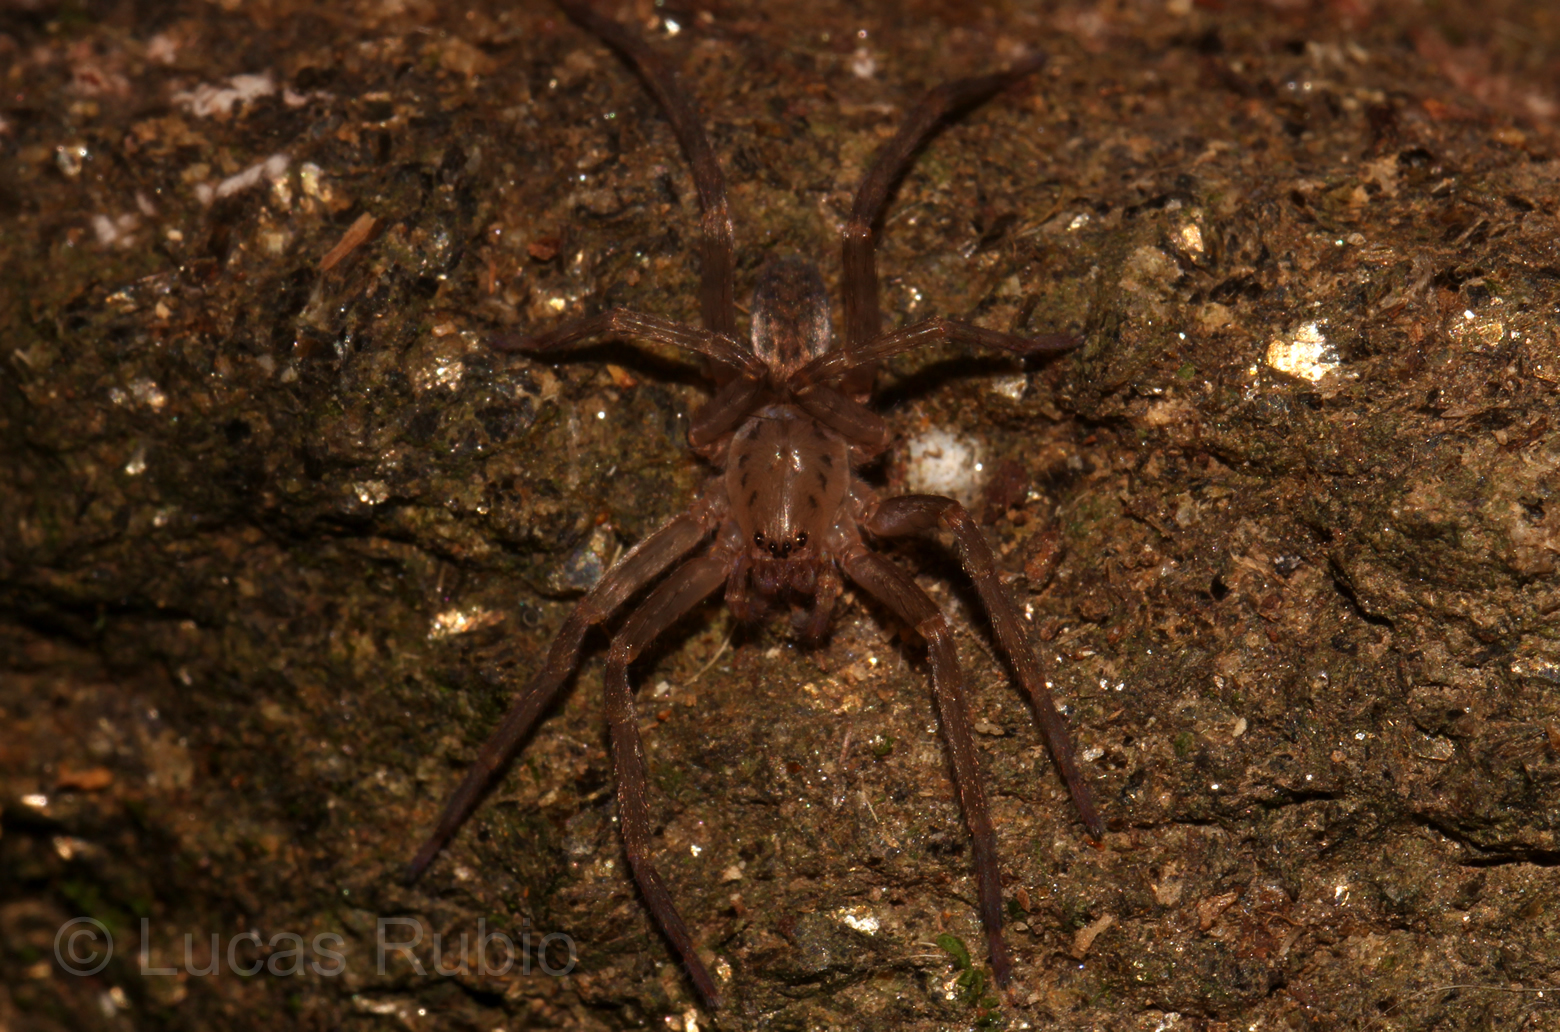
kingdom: Animalia
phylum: Arthropoda
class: Arachnida
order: Araneae
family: Ctenidae
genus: Asthenoctenus
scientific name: Asthenoctenus borellii
